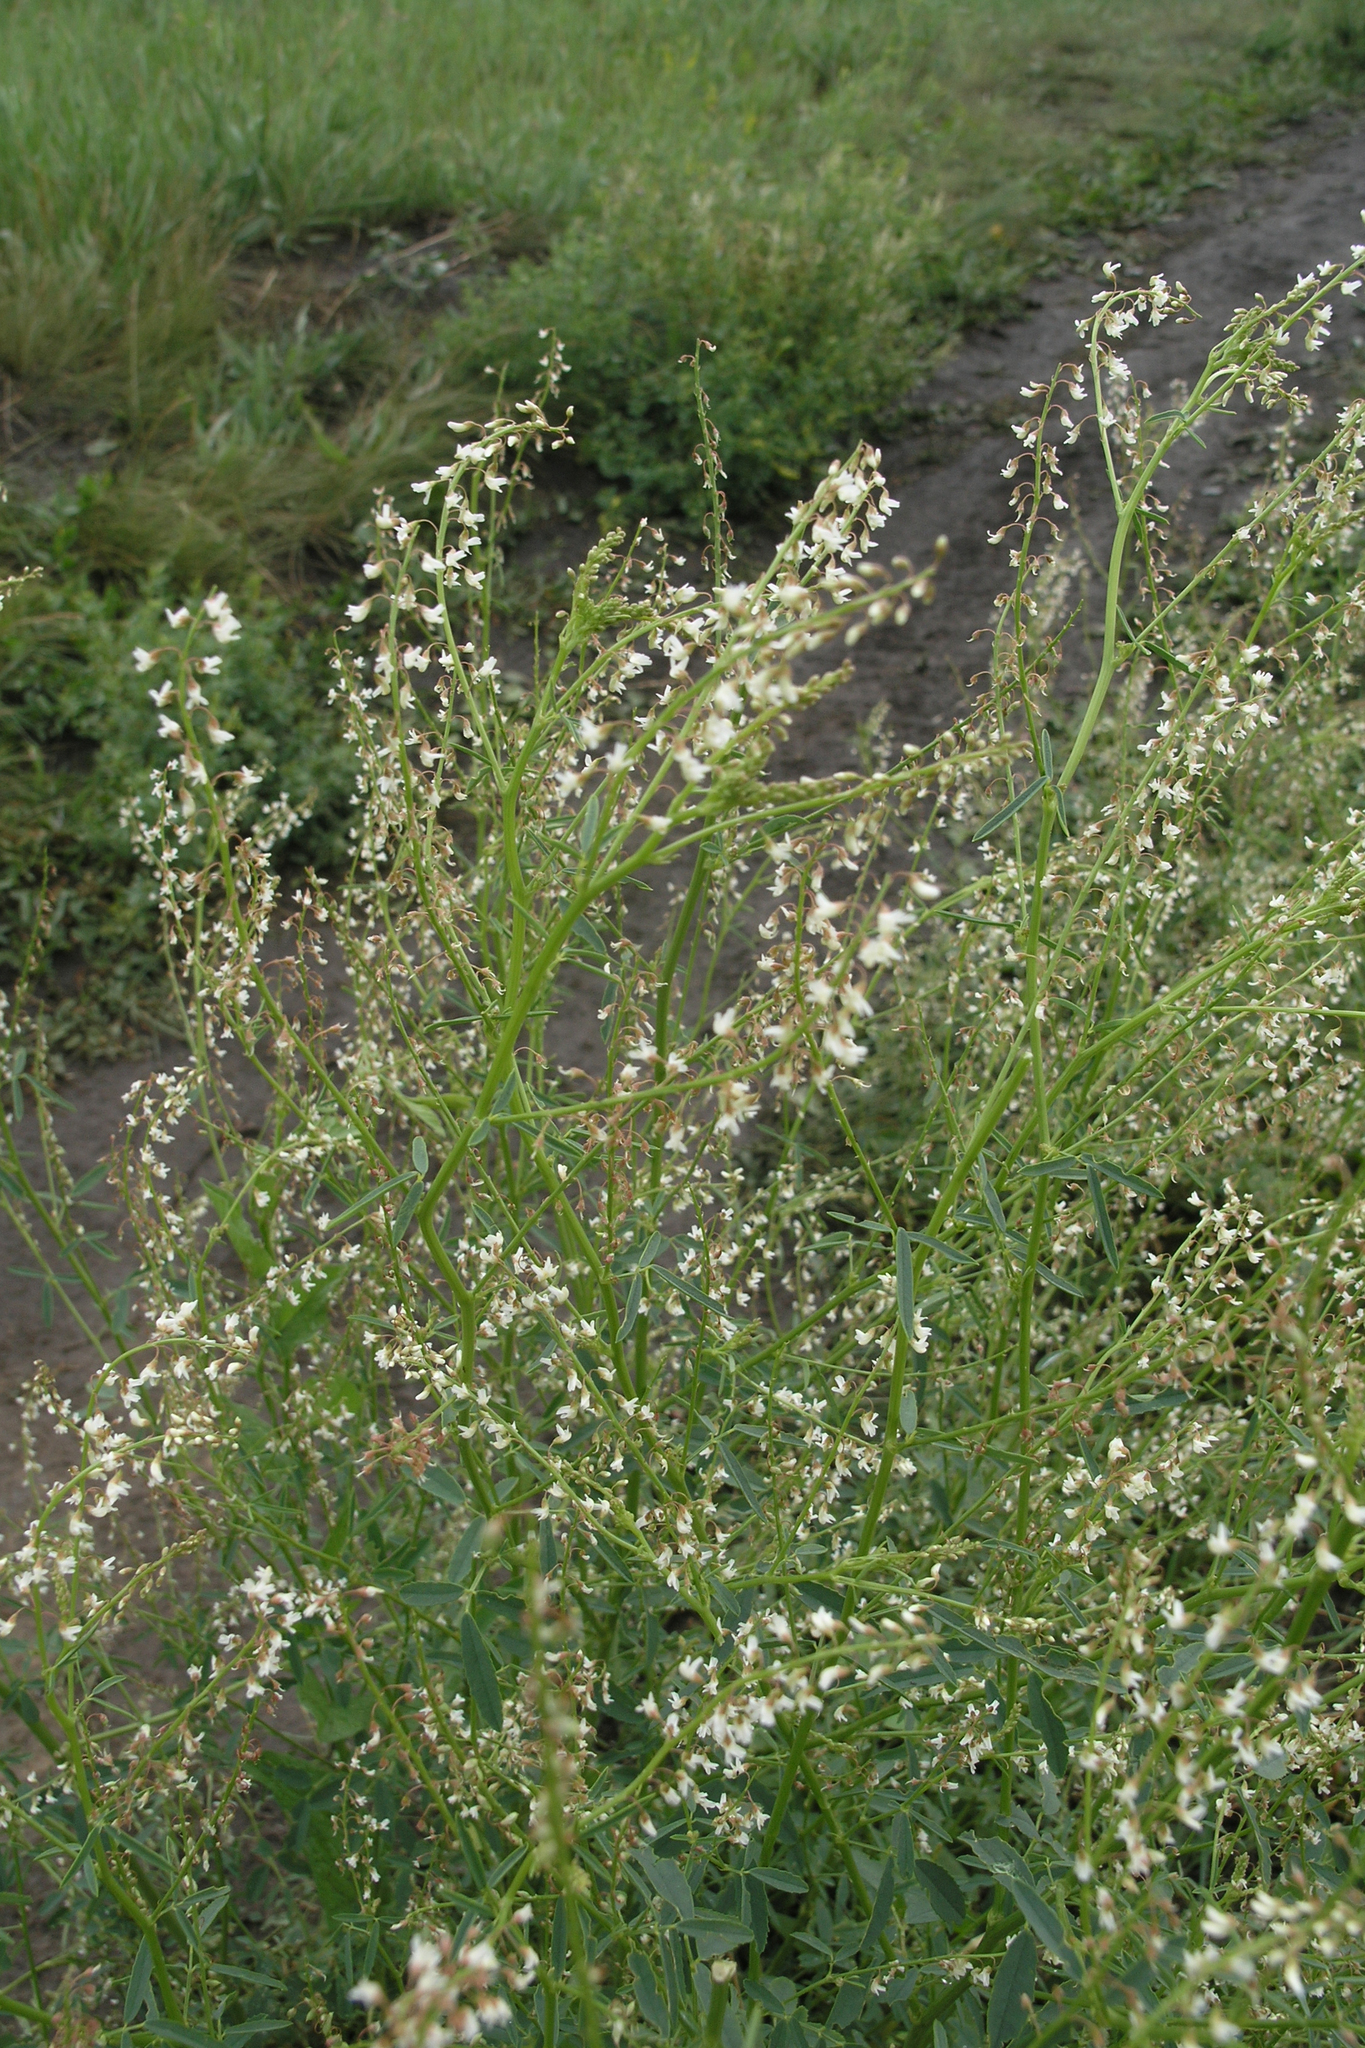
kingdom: Plantae
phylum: Tracheophyta
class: Magnoliopsida
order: Fabales
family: Fabaceae
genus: Melilotus
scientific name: Melilotus wolgicus
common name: Volga sweet-clover
